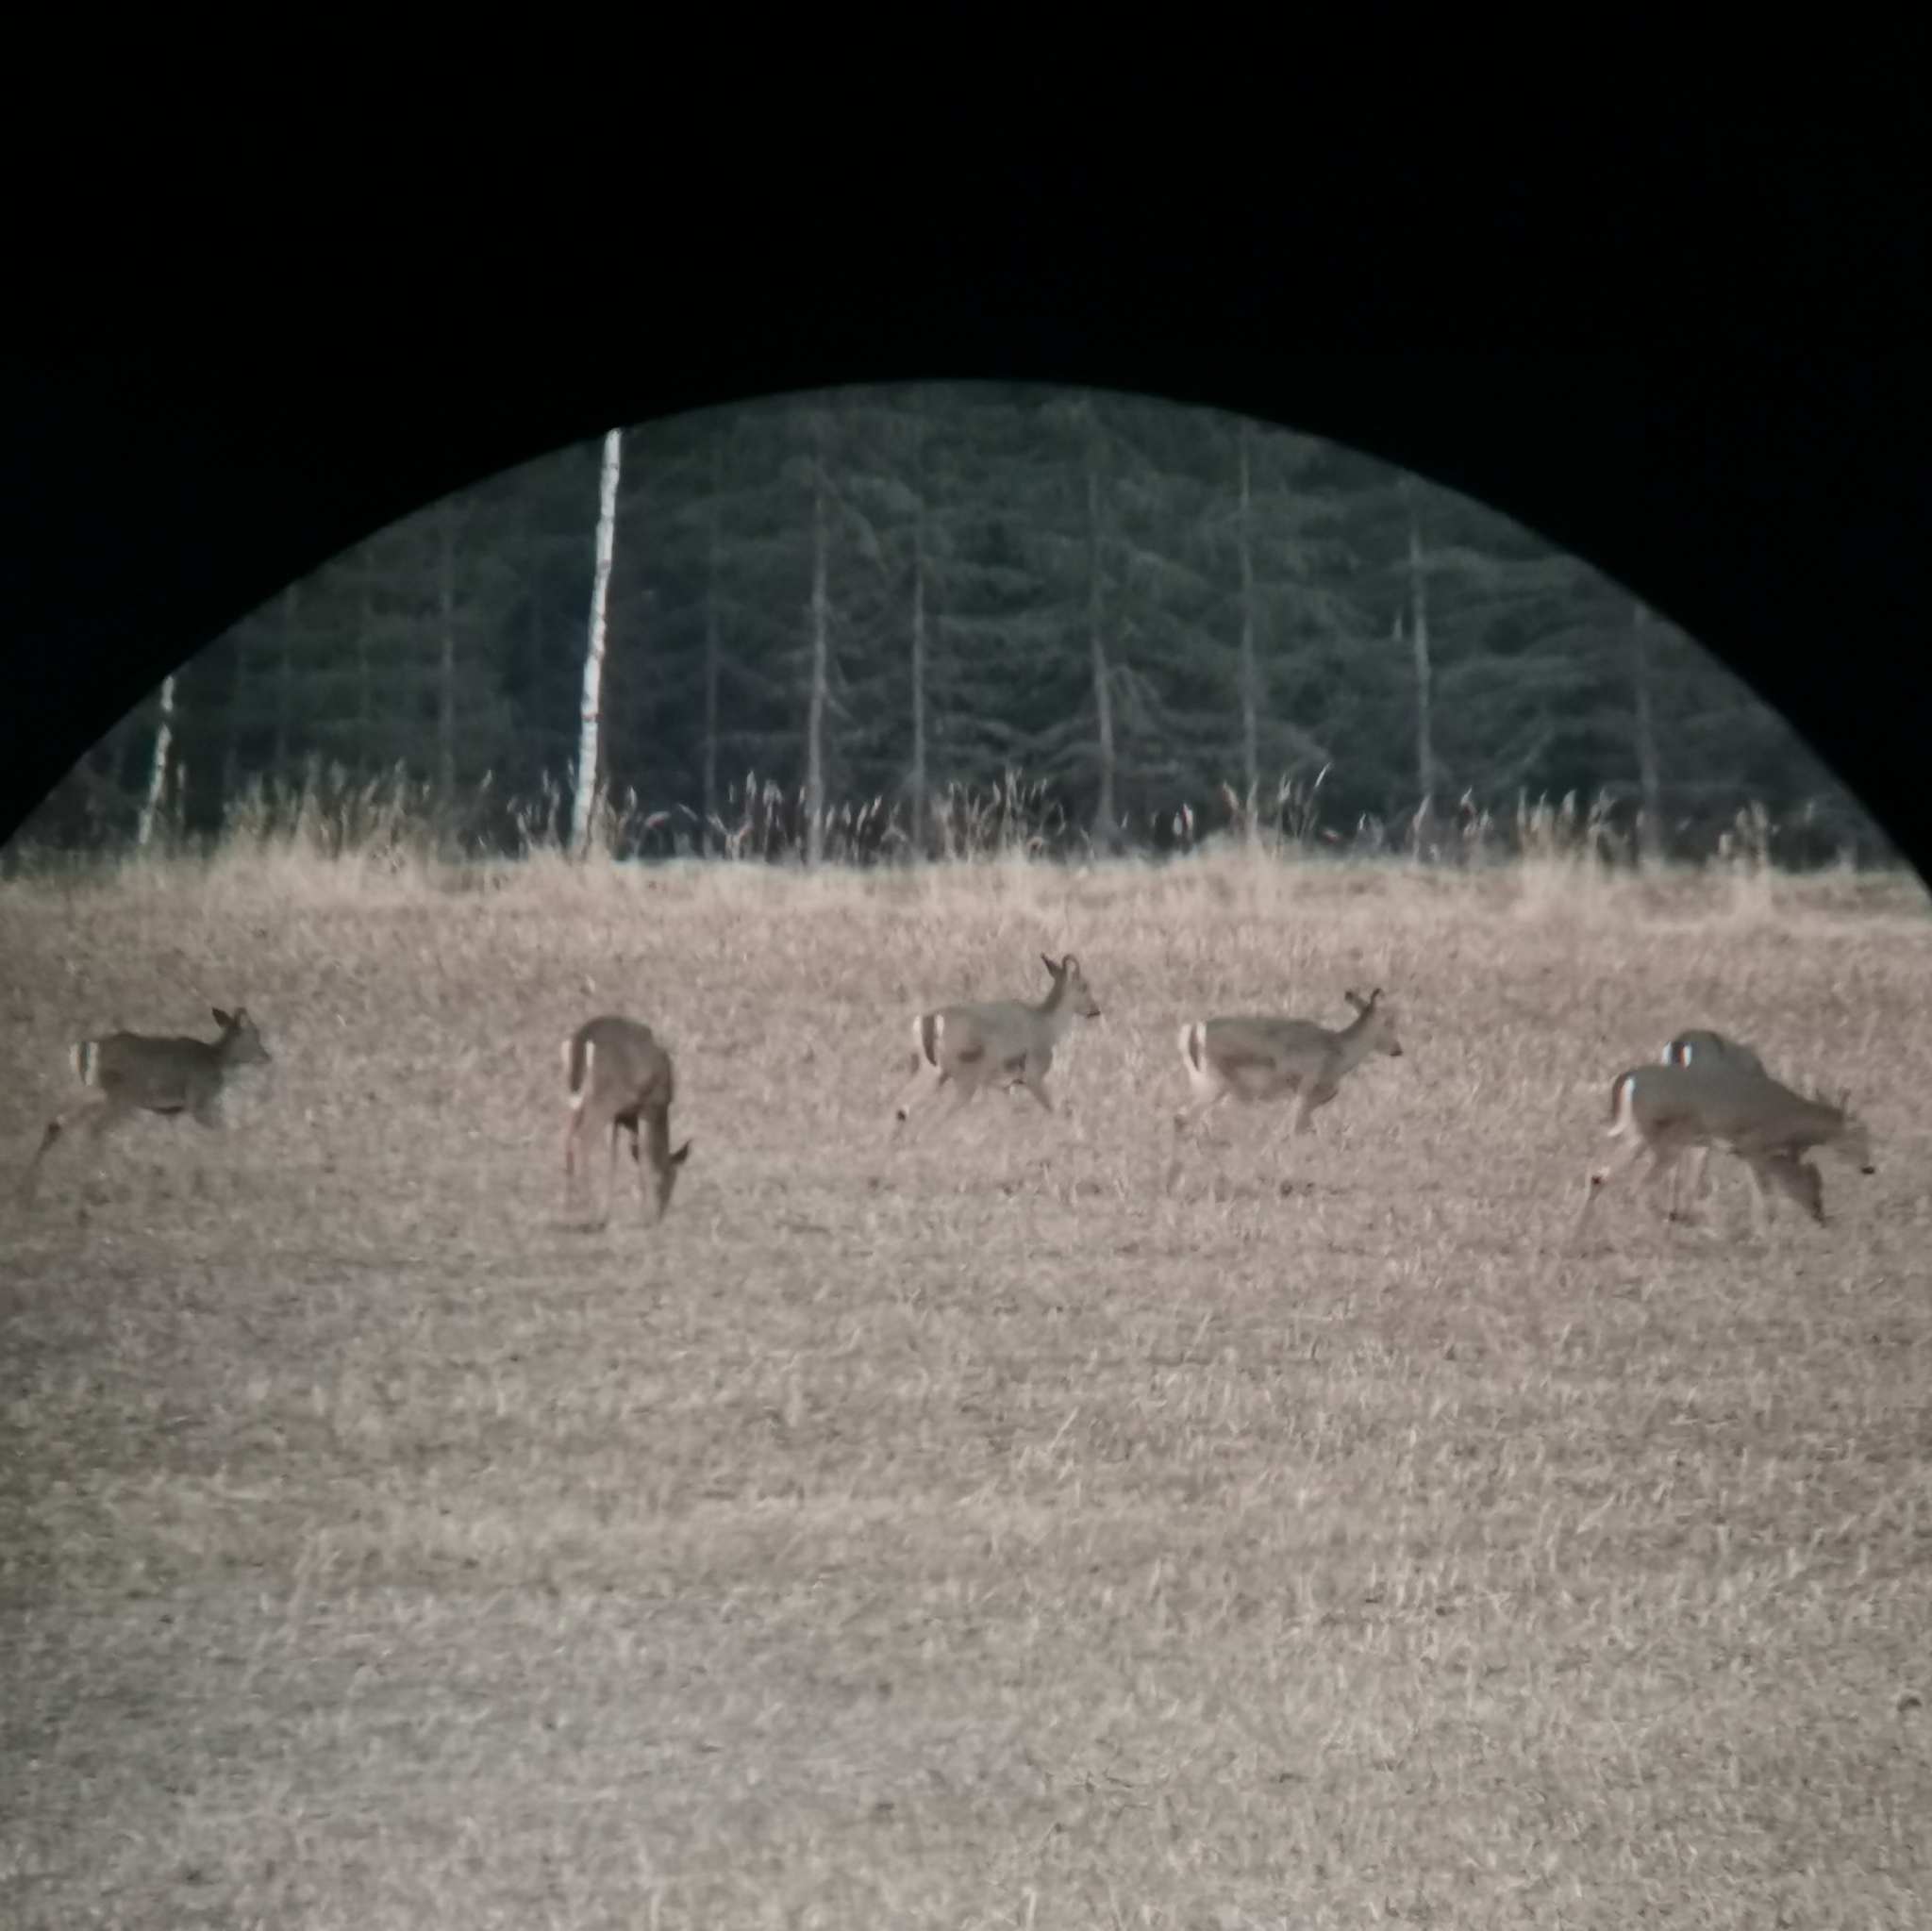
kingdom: Animalia
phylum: Chordata
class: Mammalia
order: Artiodactyla
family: Cervidae
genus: Odocoileus
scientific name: Odocoileus virginianus
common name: White-tailed deer
